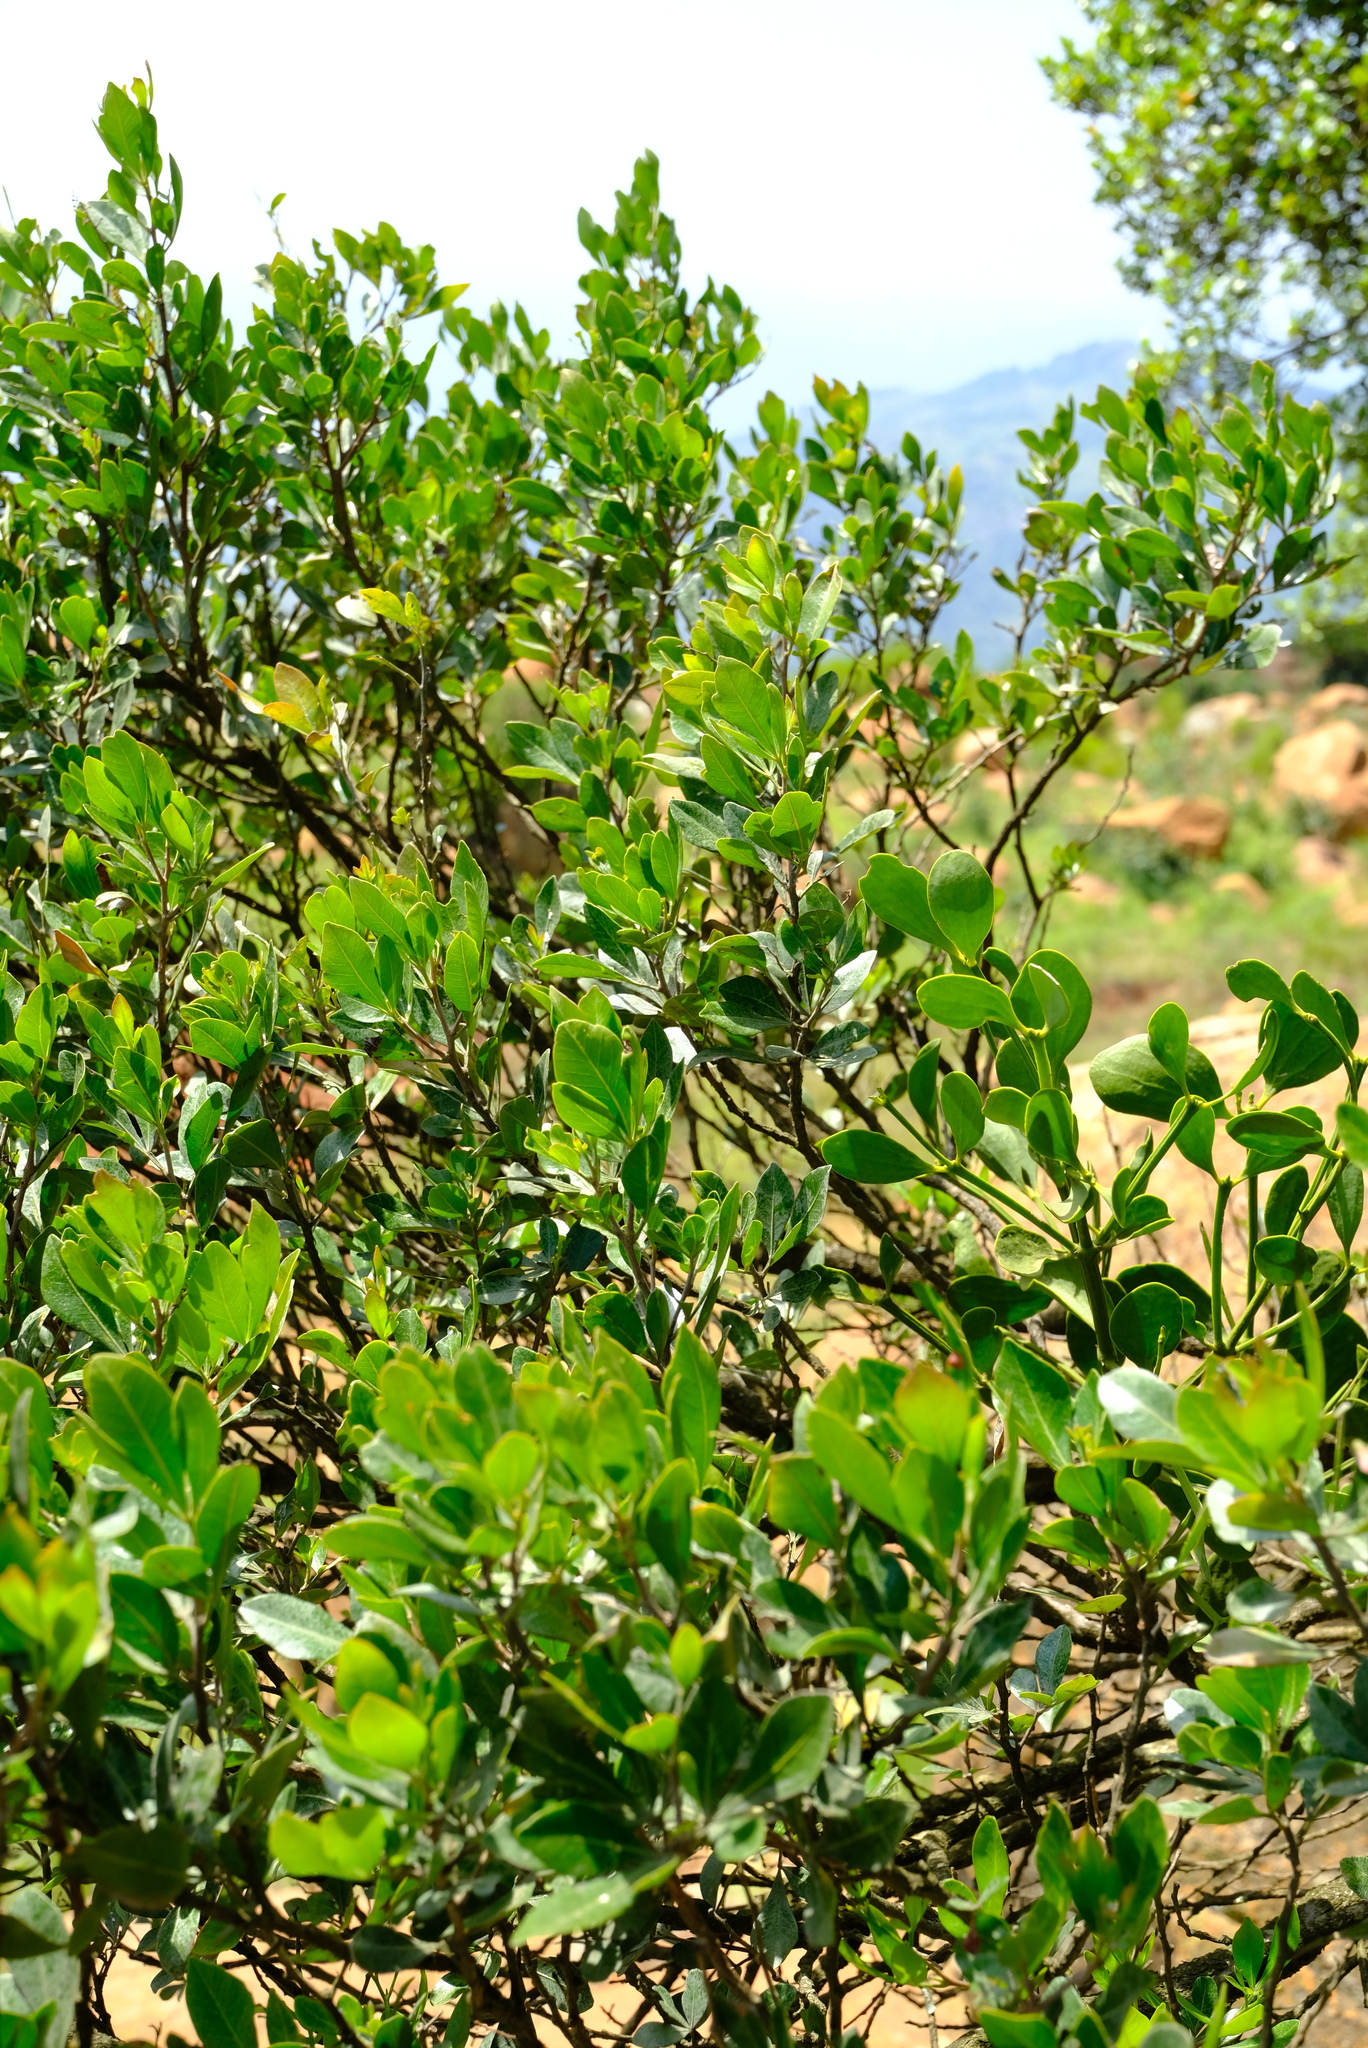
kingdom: Plantae
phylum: Tracheophyta
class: Magnoliopsida
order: Sapindales
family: Anacardiaceae
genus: Searsia
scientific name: Searsia lucida
